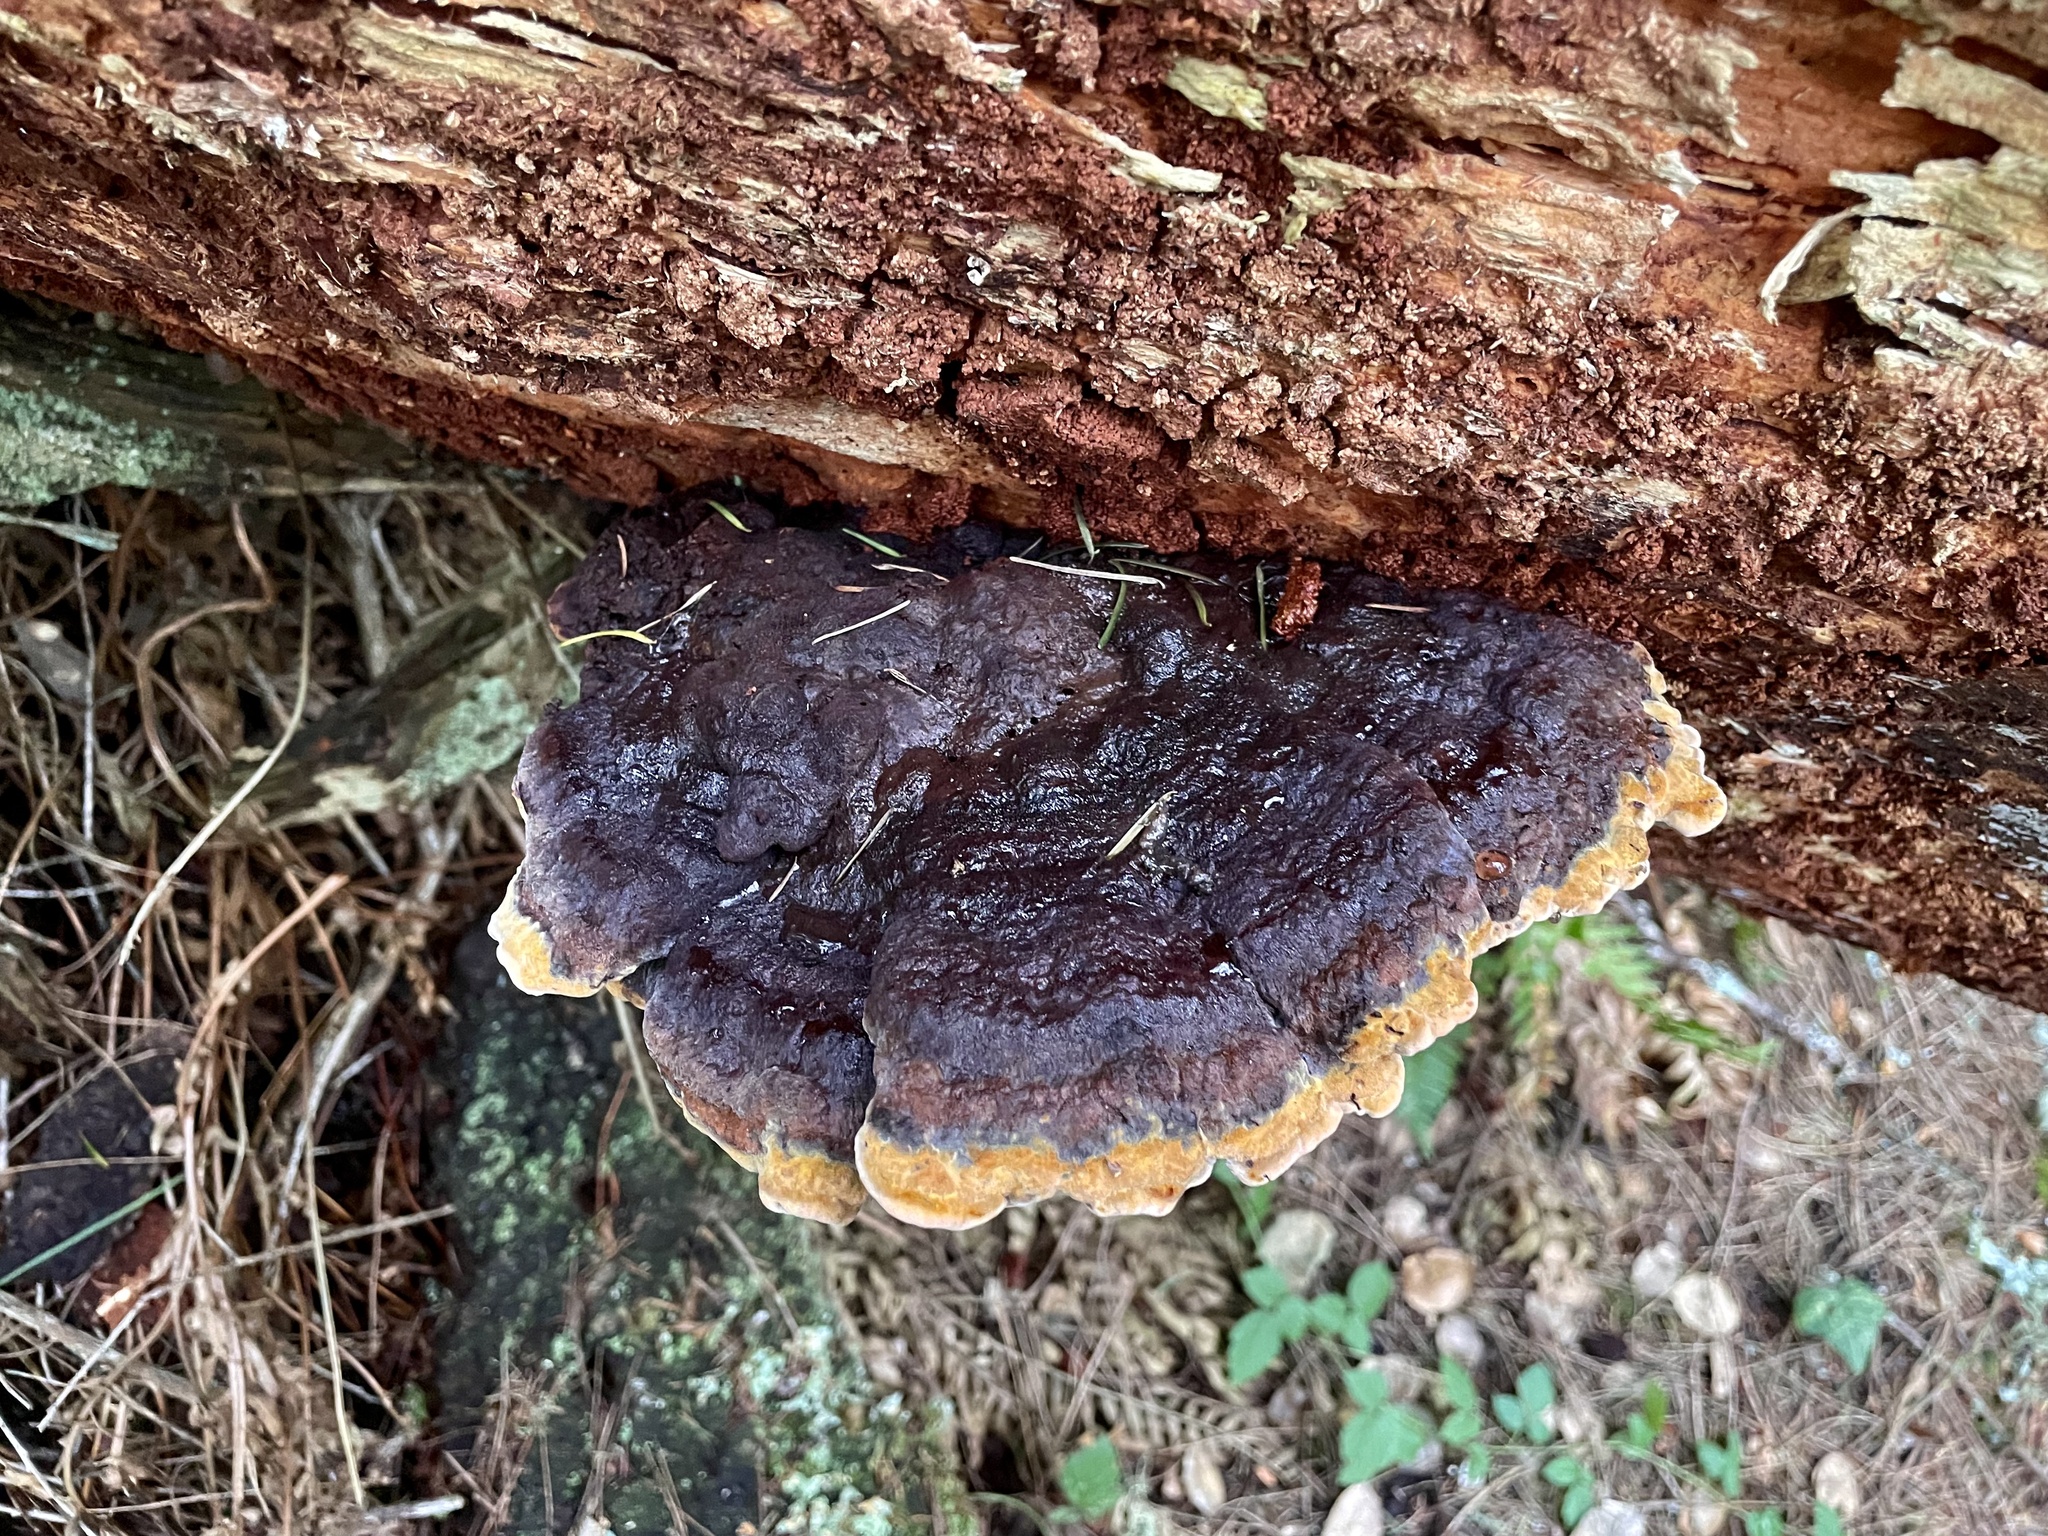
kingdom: Fungi
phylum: Basidiomycota
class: Agaricomycetes
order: Polyporales
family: Laetiporaceae
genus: Phaeolus
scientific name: Phaeolus schweinitzii
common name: Dyer's mazegill
